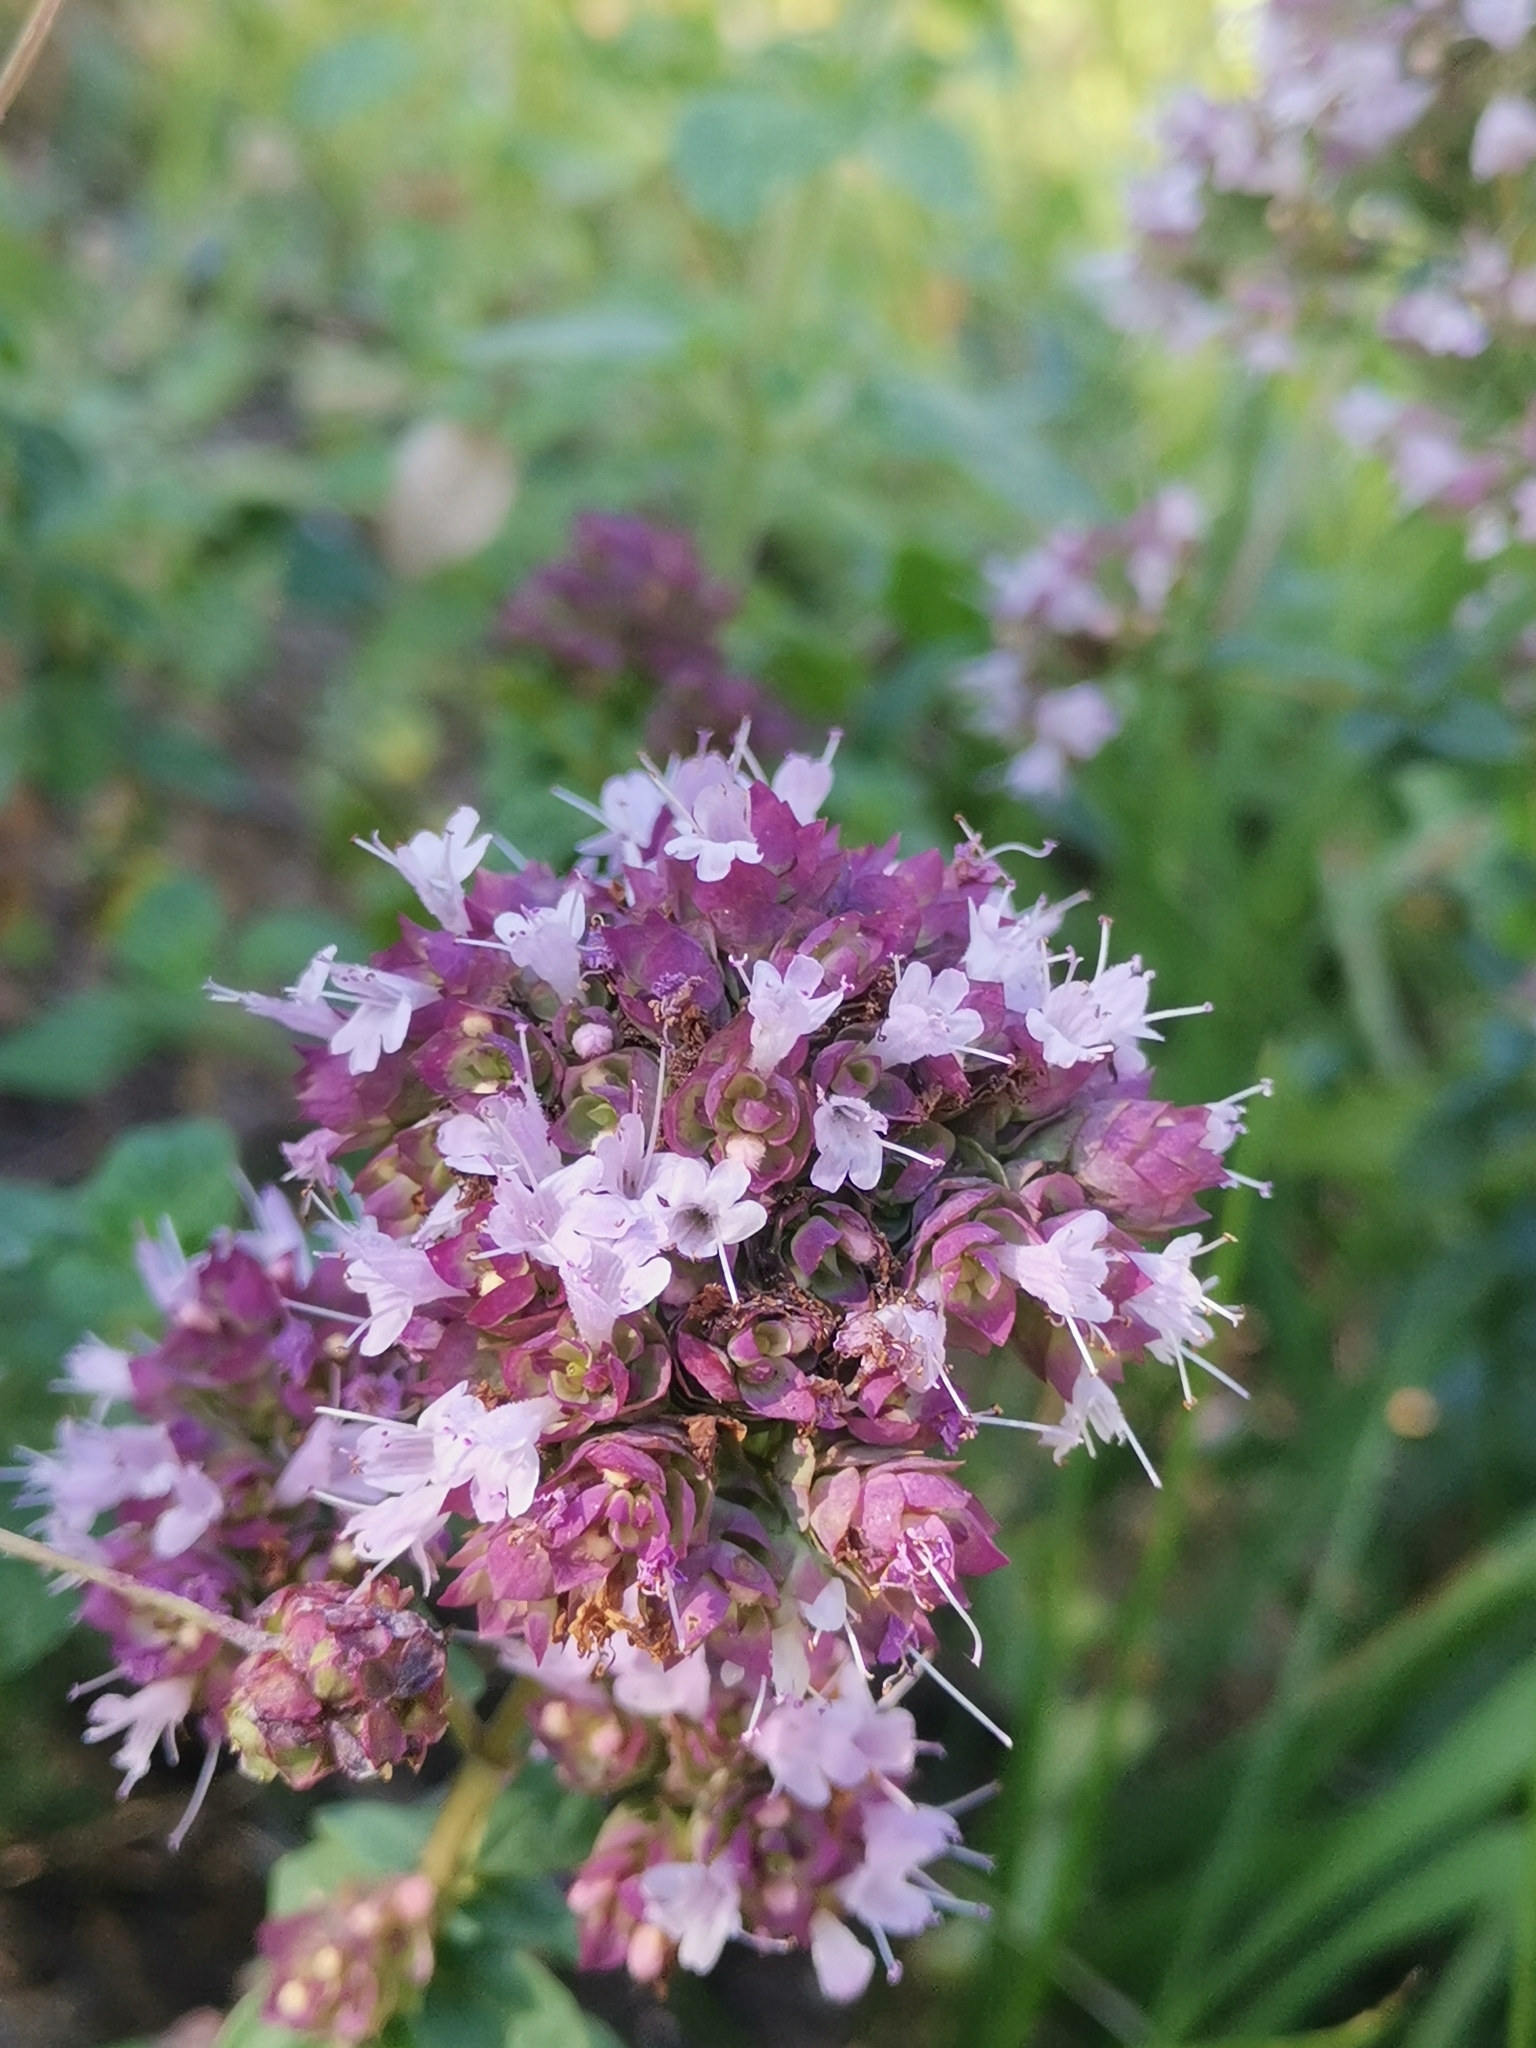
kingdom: Plantae
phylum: Tracheophyta
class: Magnoliopsida
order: Lamiales
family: Lamiaceae
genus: Origanum
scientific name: Origanum vulgare
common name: Wild marjoram
